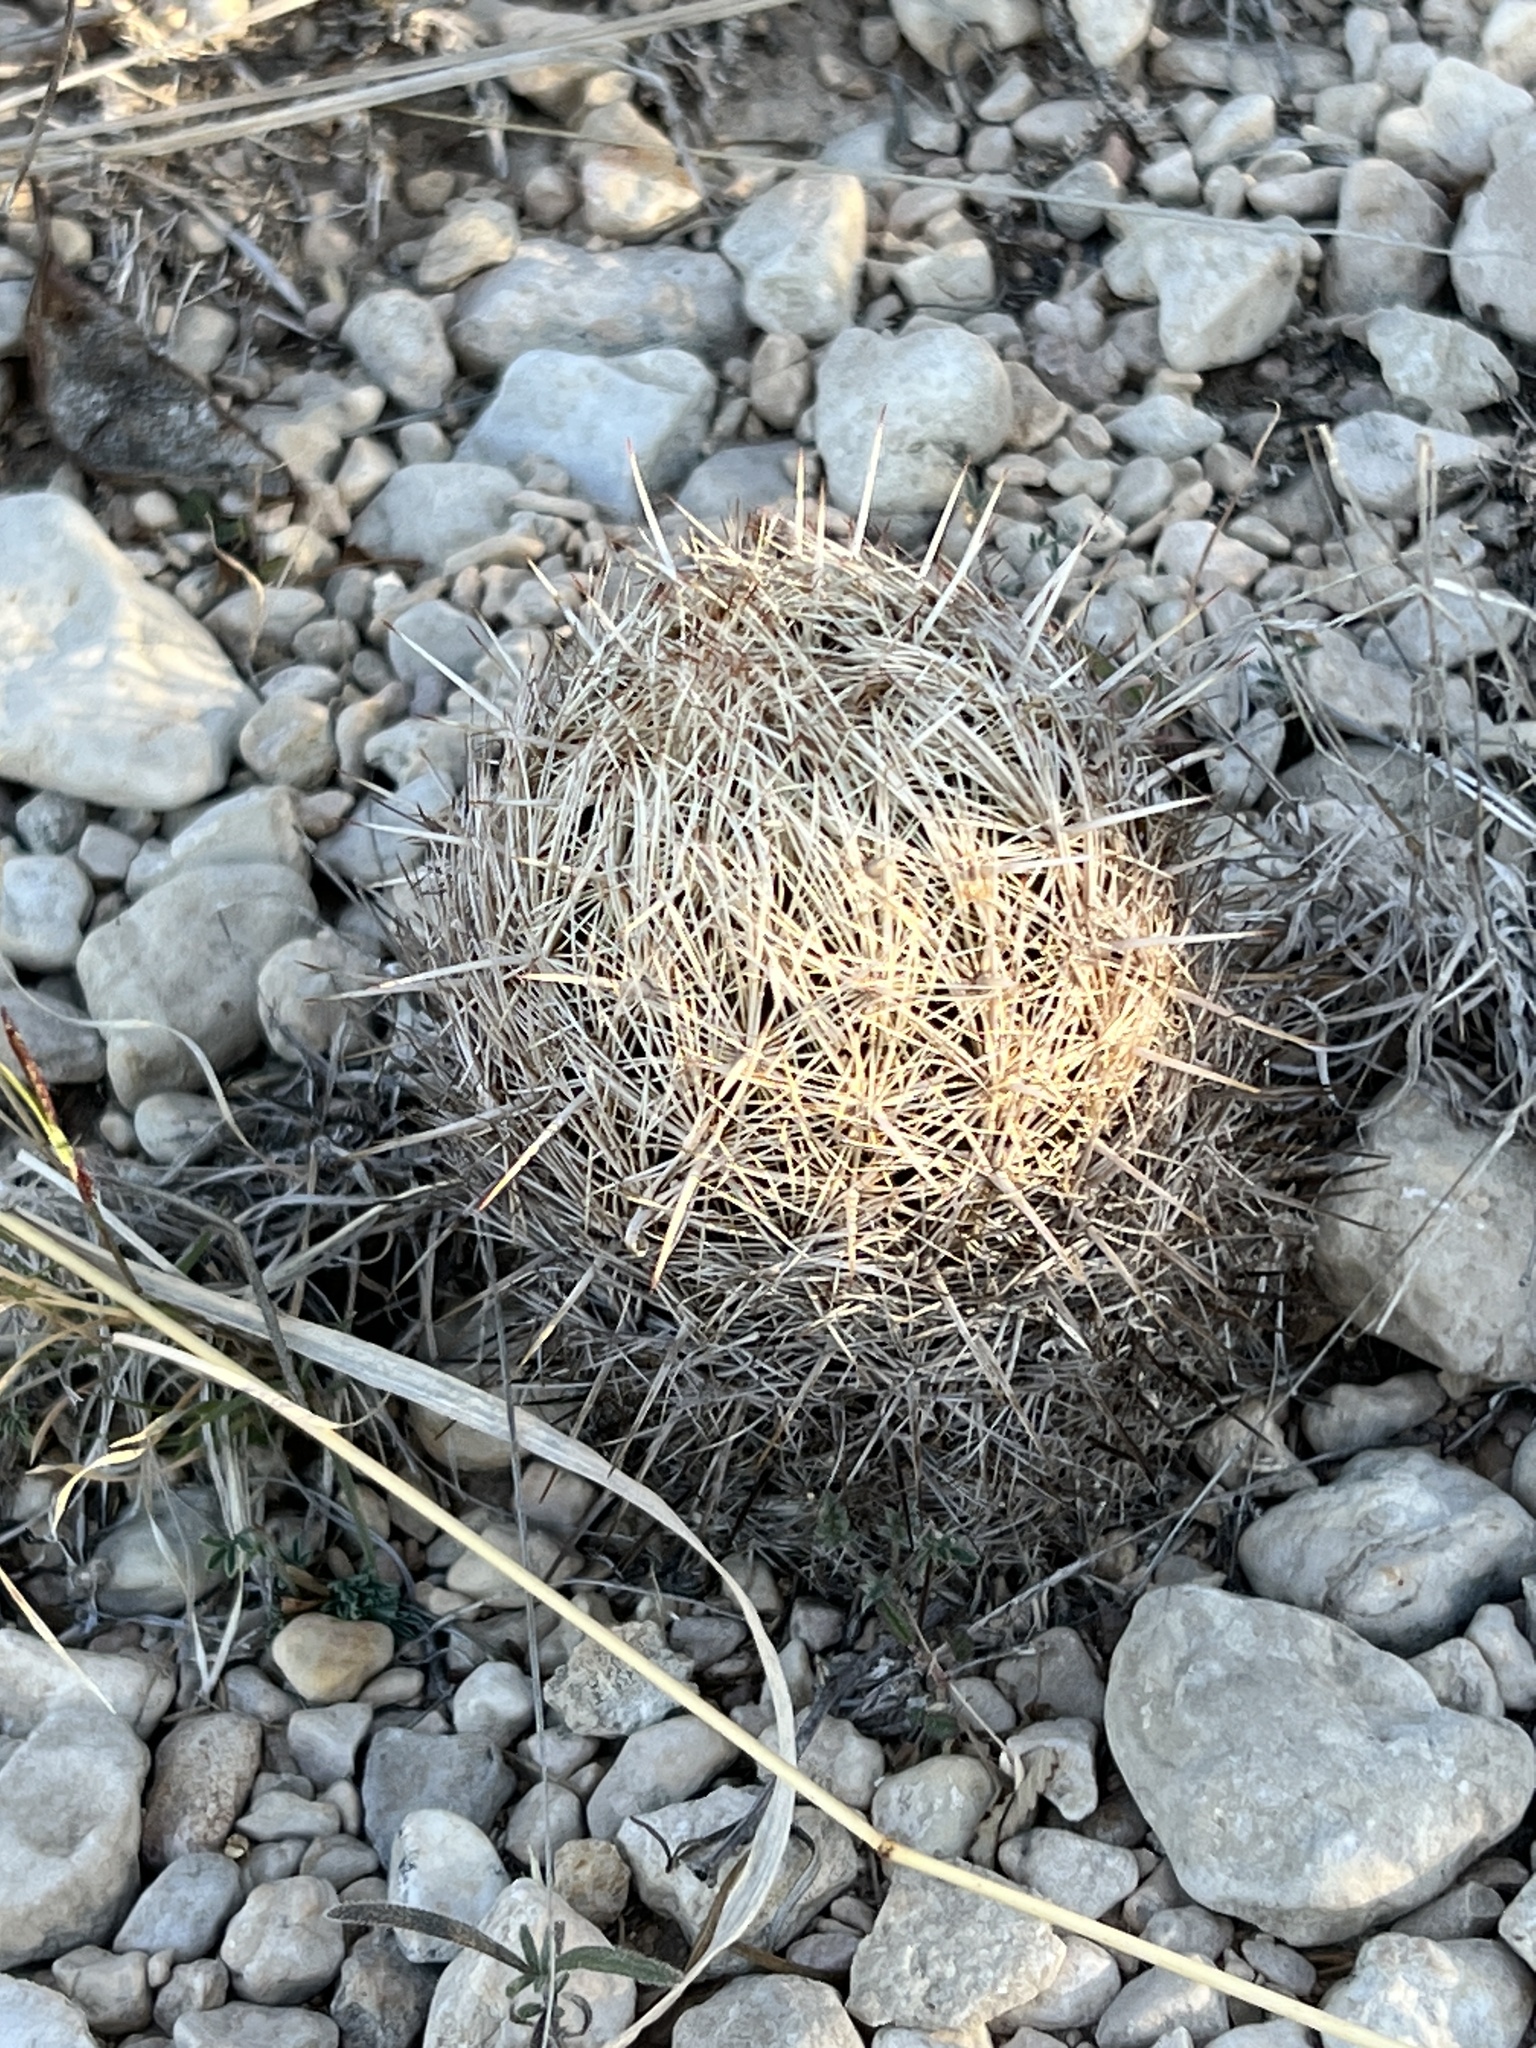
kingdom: Plantae
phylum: Tracheophyta
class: Magnoliopsida
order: Caryophyllales
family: Cactaceae
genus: Coryphantha
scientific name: Coryphantha echinus
